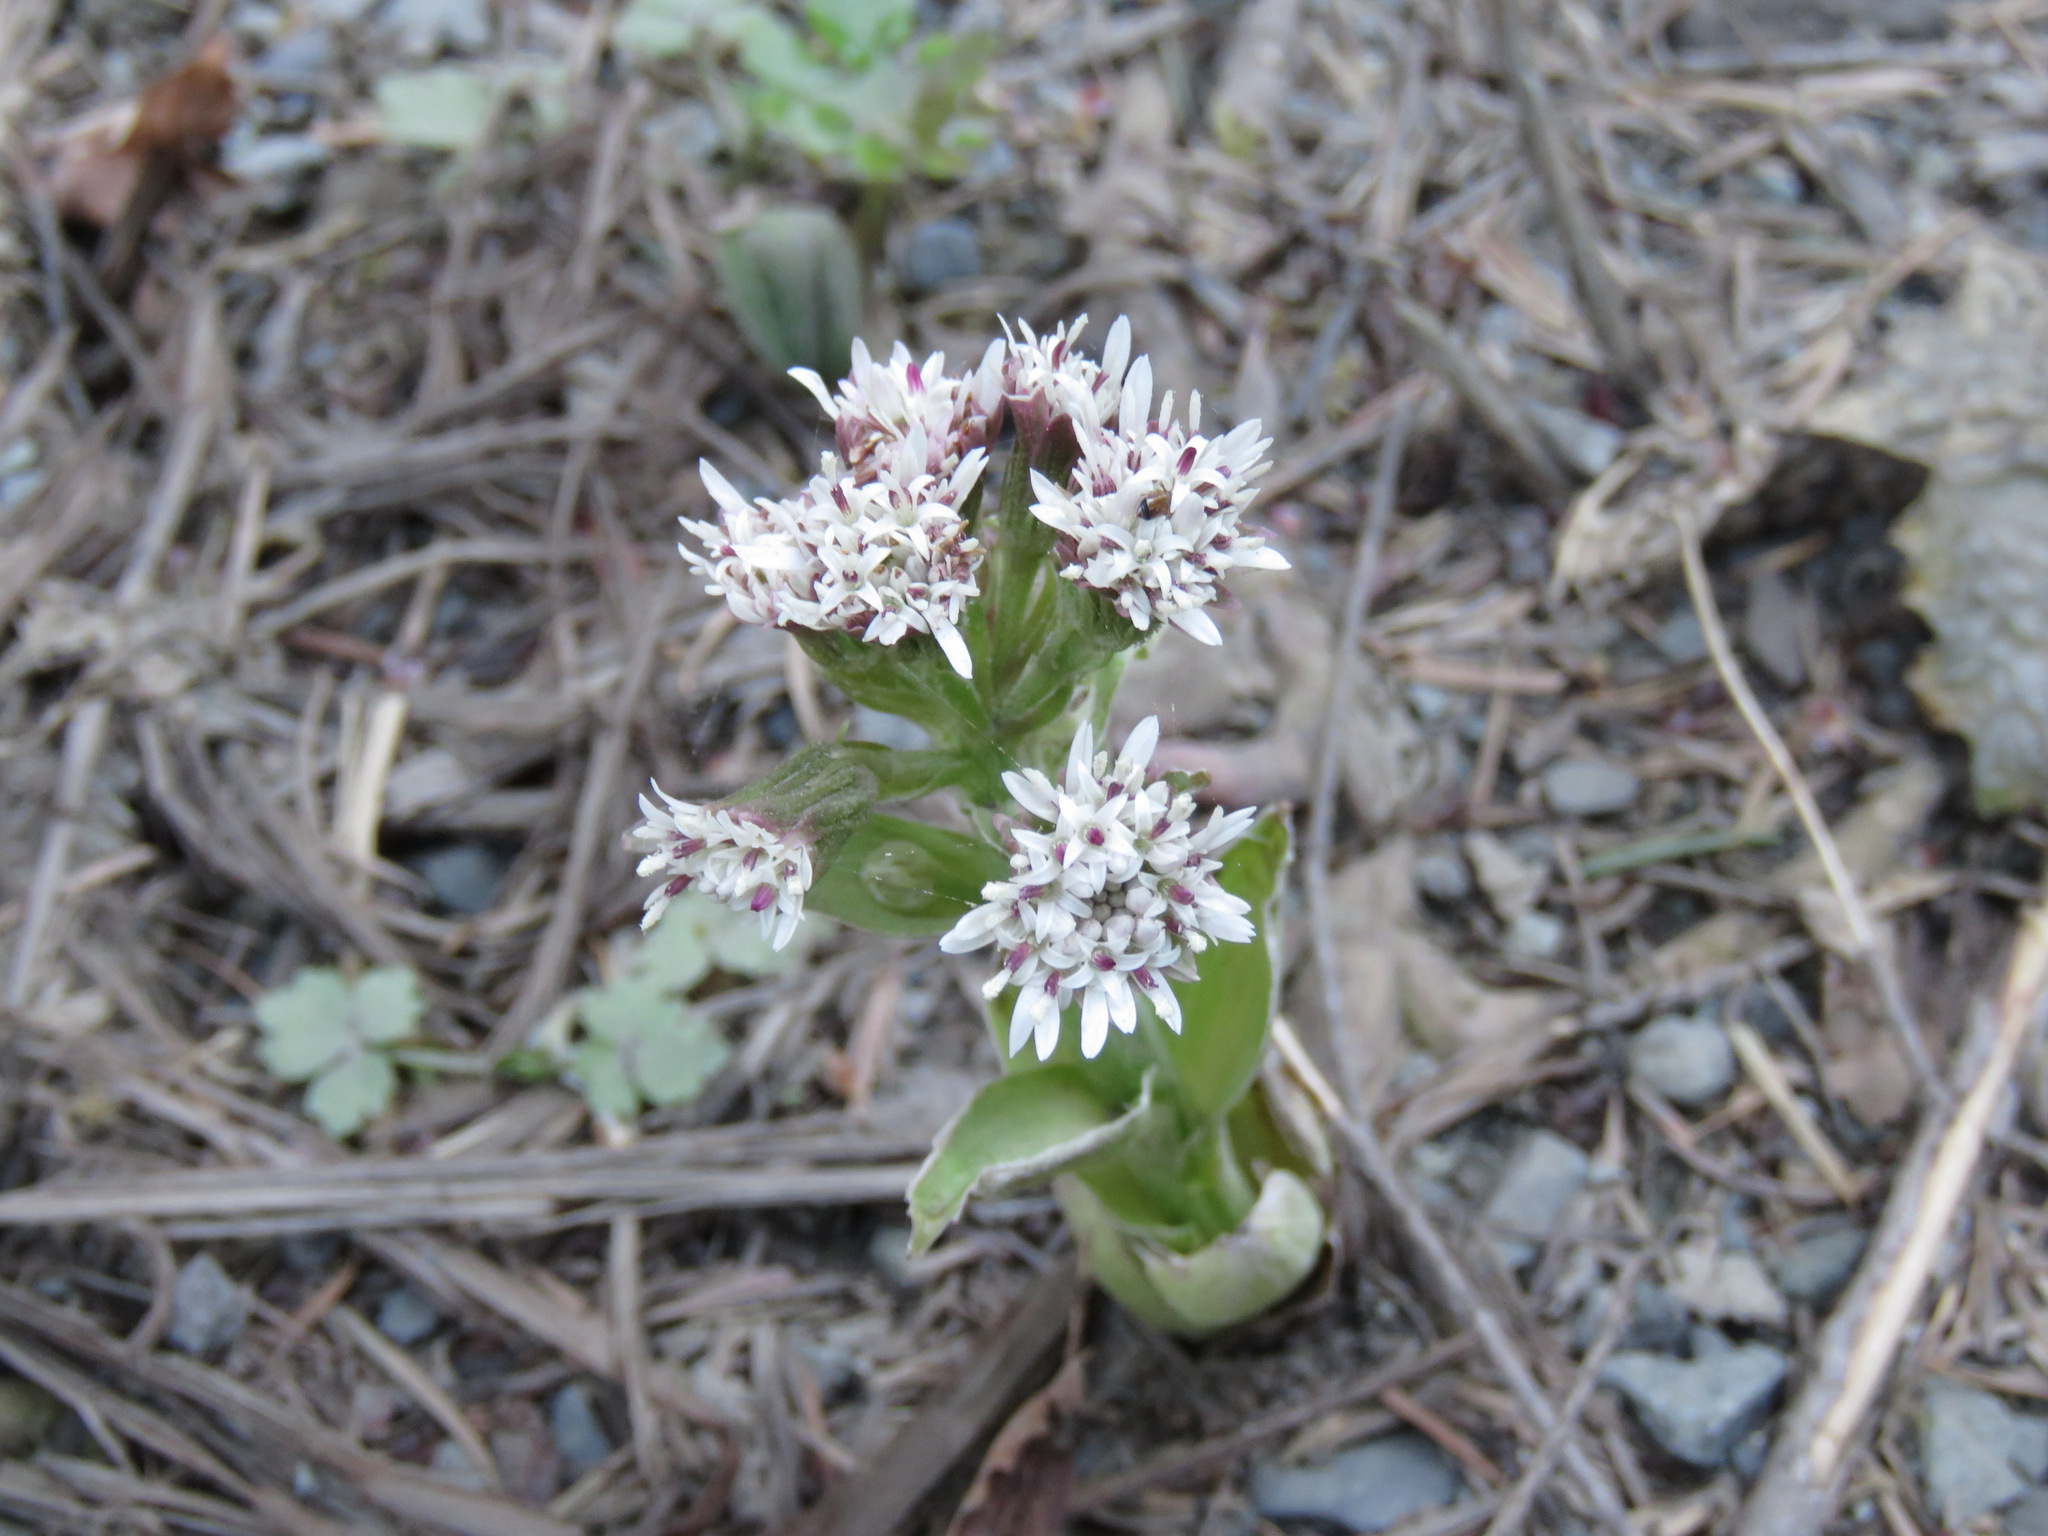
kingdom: Plantae
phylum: Tracheophyta
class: Magnoliopsida
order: Asterales
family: Asteraceae
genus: Petasites
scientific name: Petasites frigidus
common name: Arctic butterbur
